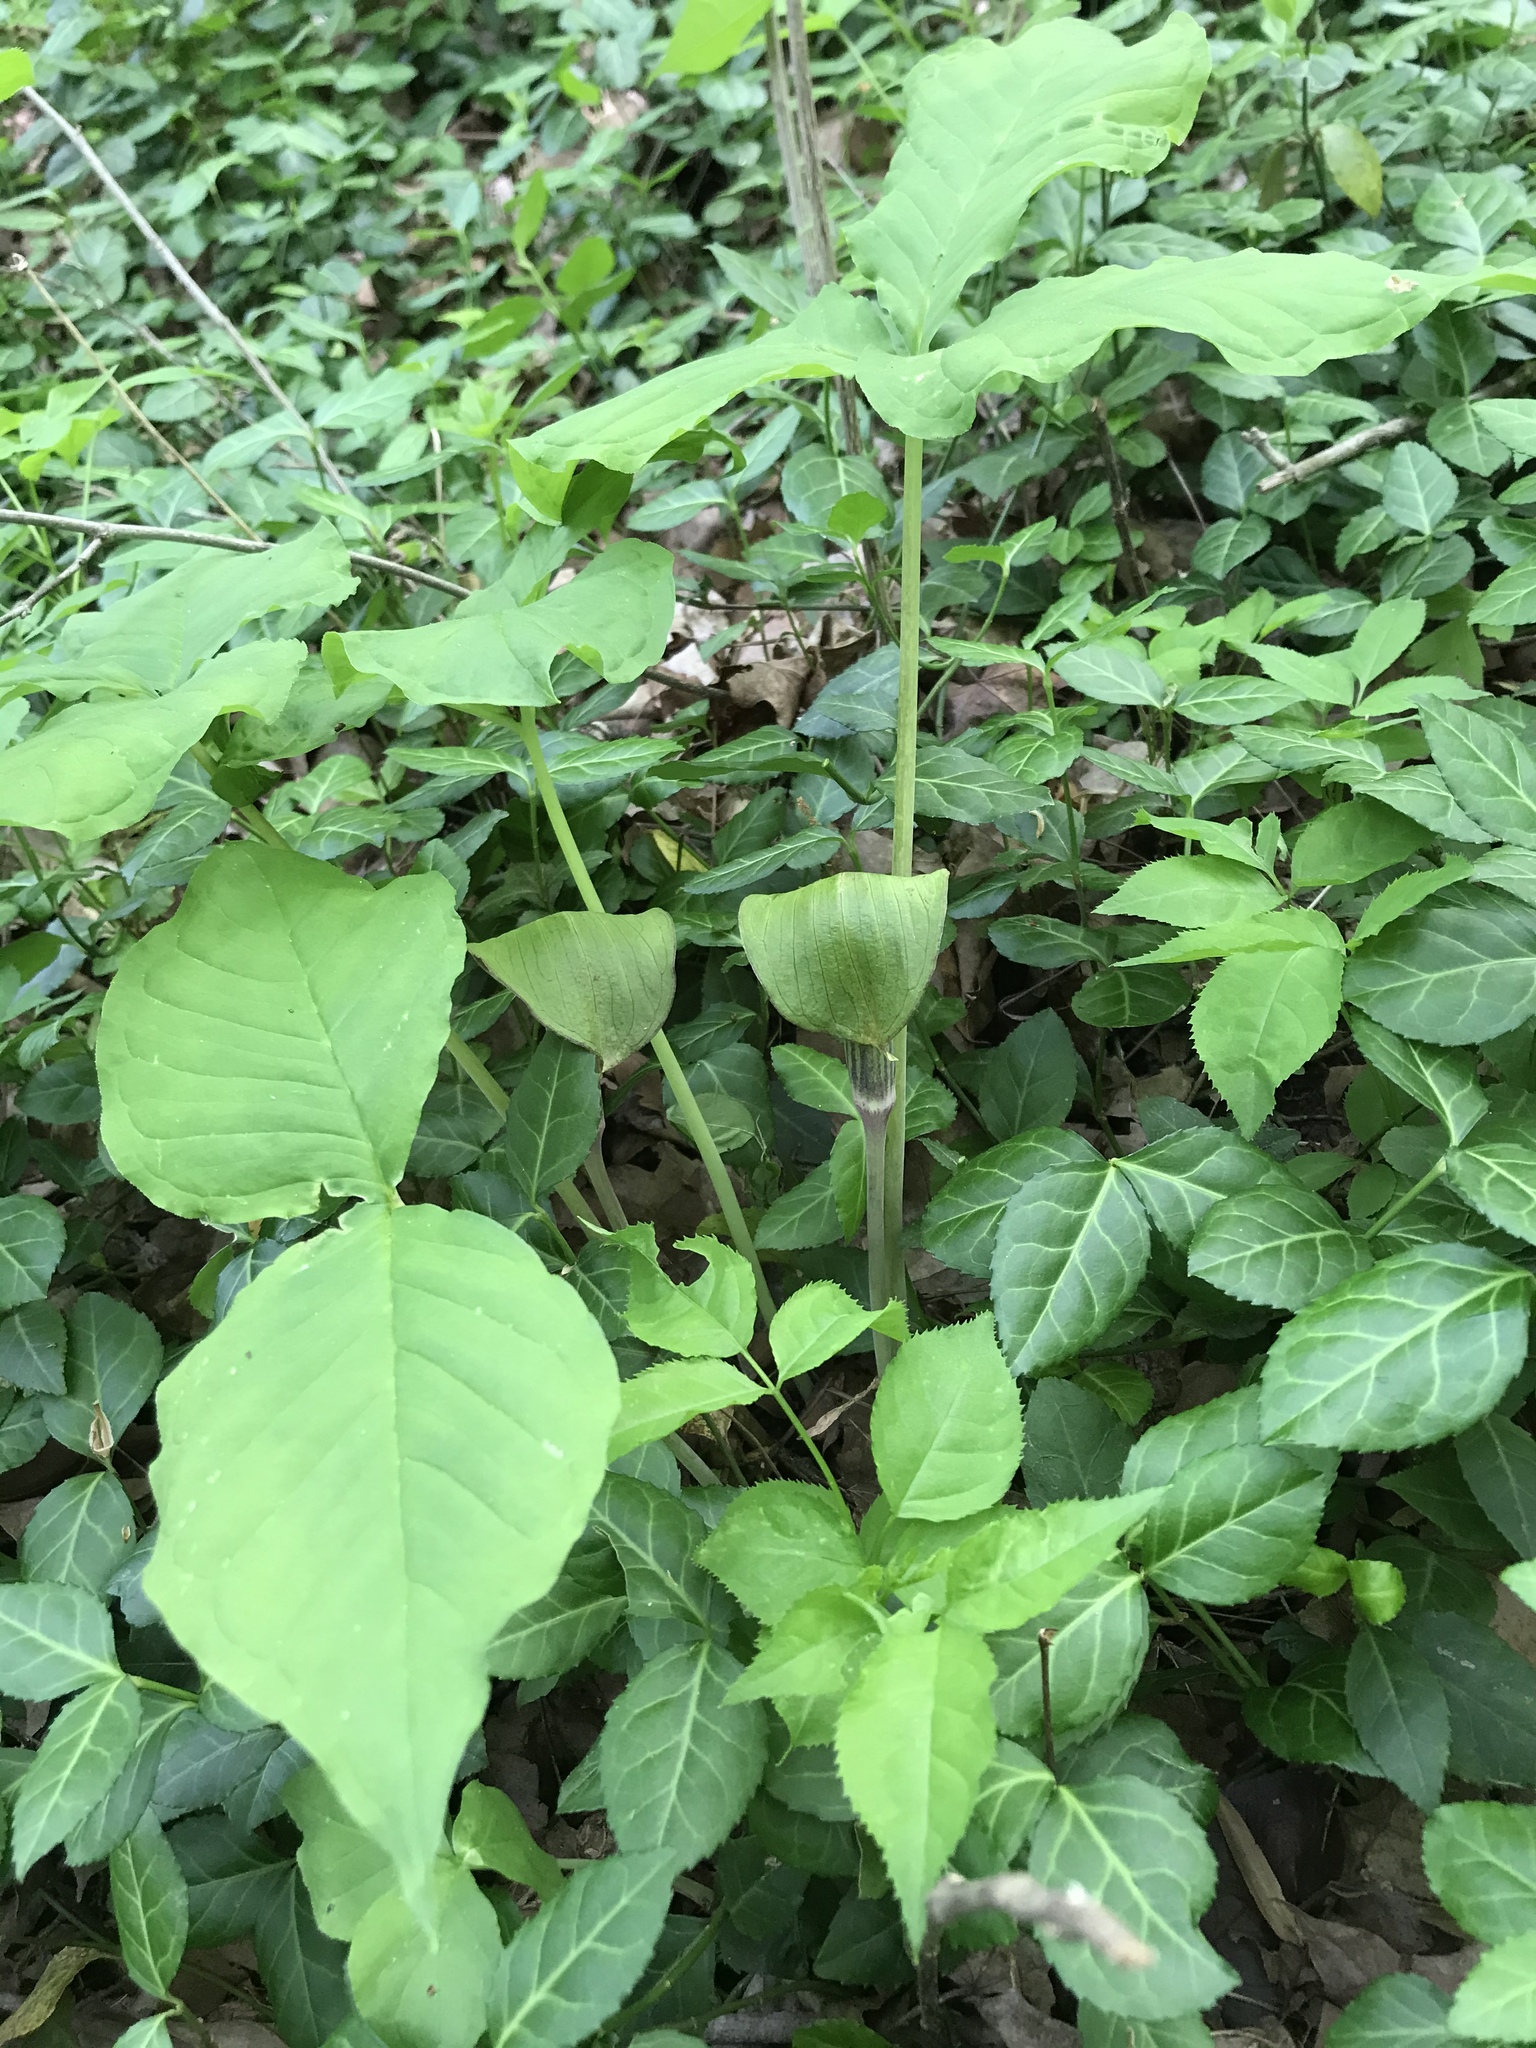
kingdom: Plantae
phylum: Tracheophyta
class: Liliopsida
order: Alismatales
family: Araceae
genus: Arisaema
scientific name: Arisaema triphyllum
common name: Jack-in-the-pulpit
